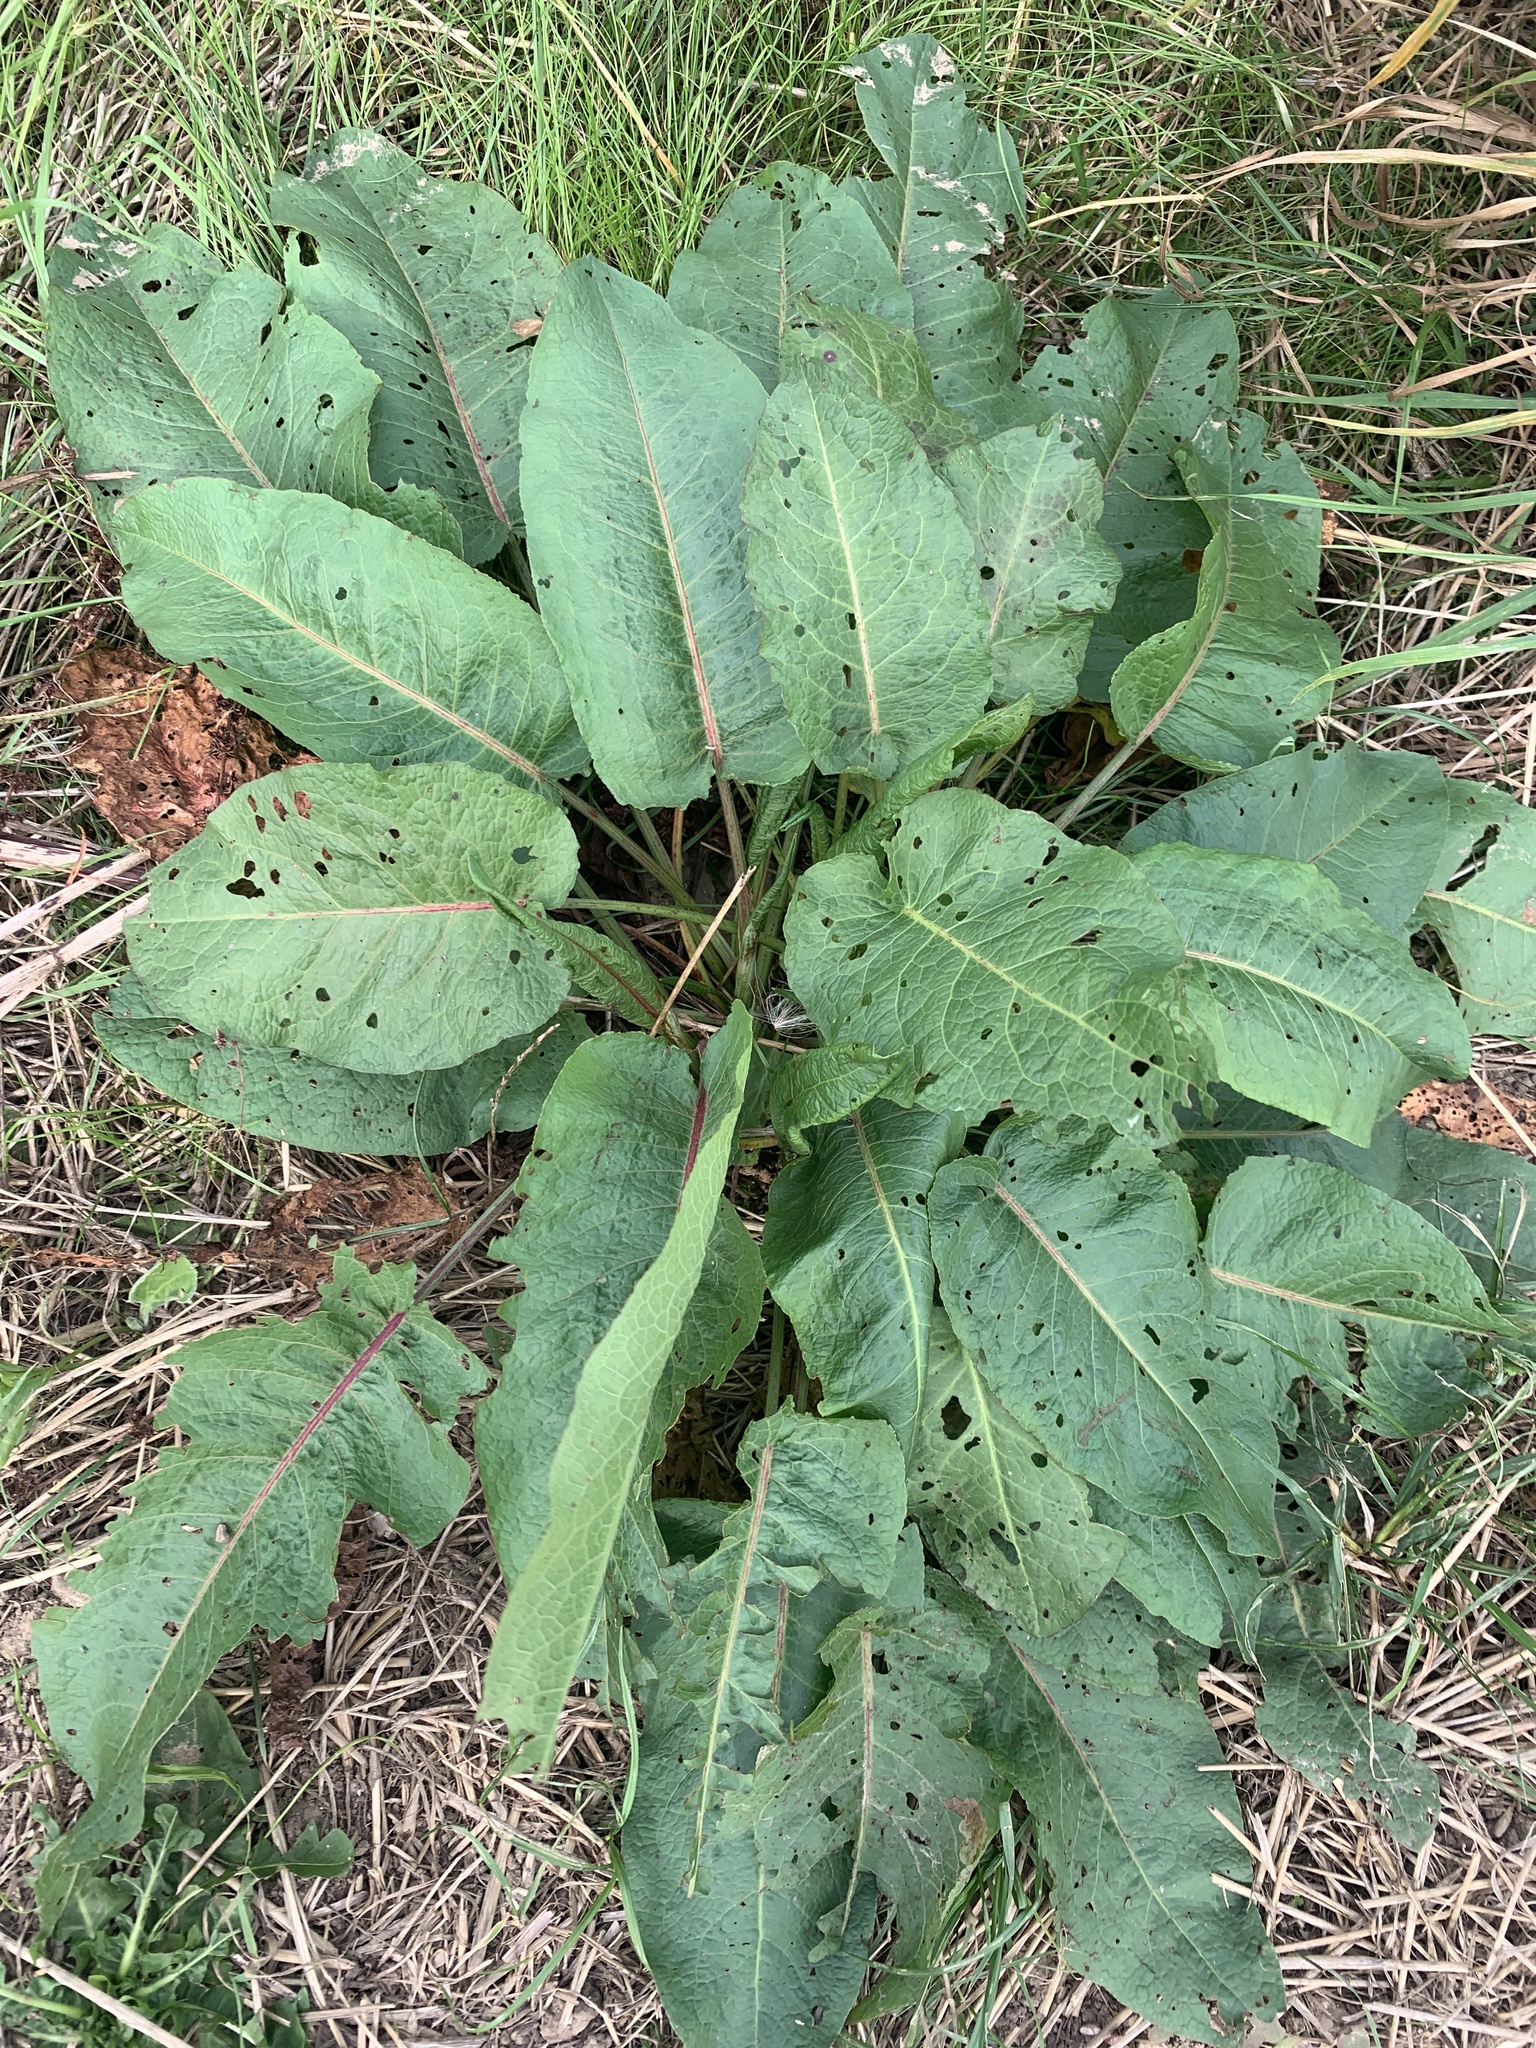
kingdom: Plantae
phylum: Tracheophyta
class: Magnoliopsida
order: Caryophyllales
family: Polygonaceae
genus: Rumex
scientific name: Rumex obtusifolius
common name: Bitter dock
